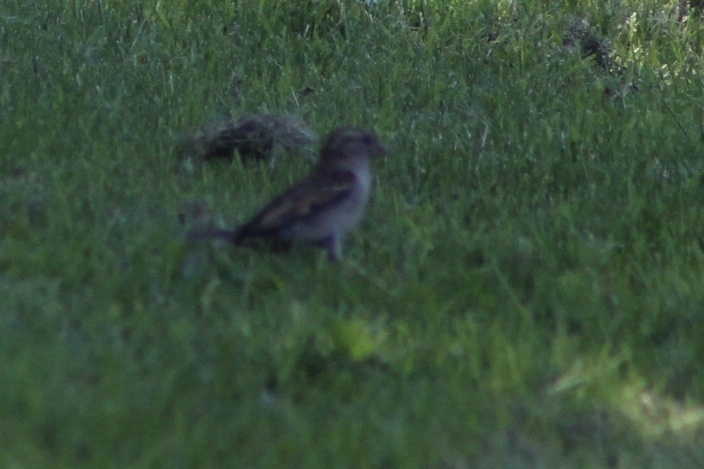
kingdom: Animalia
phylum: Chordata
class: Aves
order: Passeriformes
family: Passeridae
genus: Passer
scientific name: Passer domesticus
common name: House sparrow
